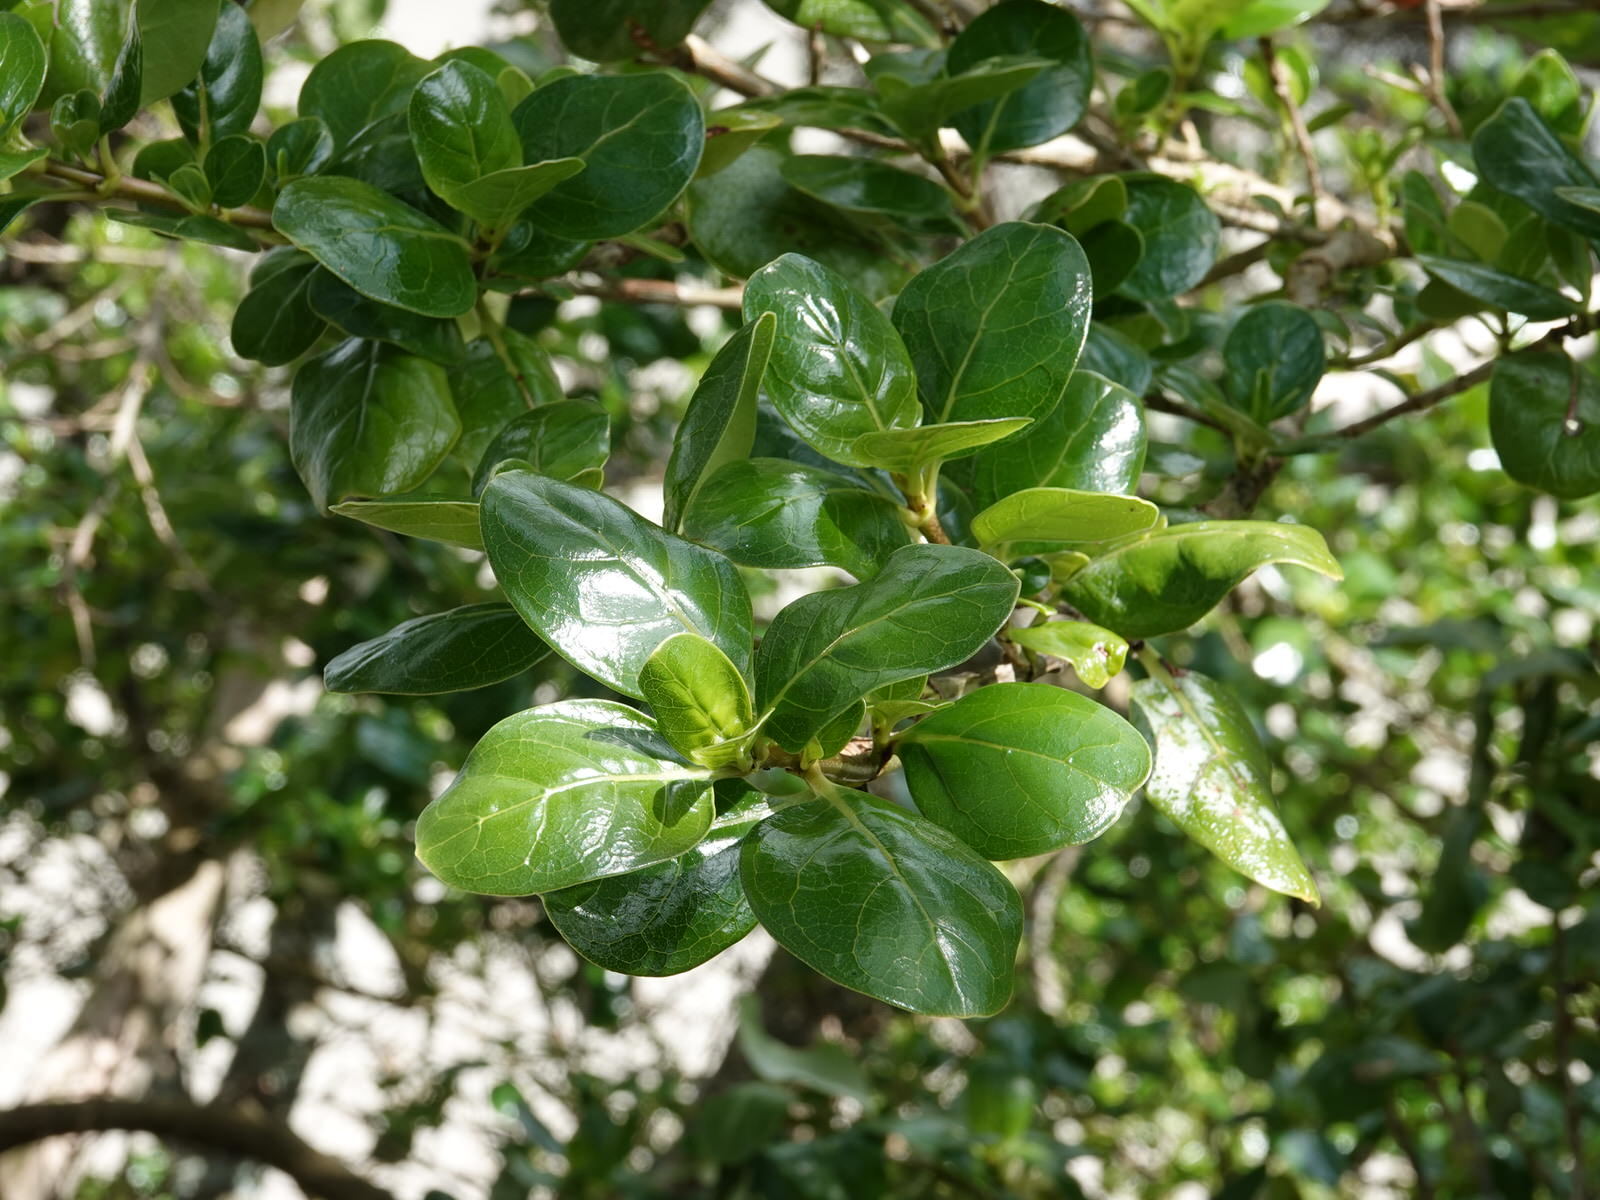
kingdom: Plantae
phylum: Tracheophyta
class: Magnoliopsida
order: Gentianales
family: Rubiaceae
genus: Coprosma
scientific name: Coprosma repens
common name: Tree bedstraw
